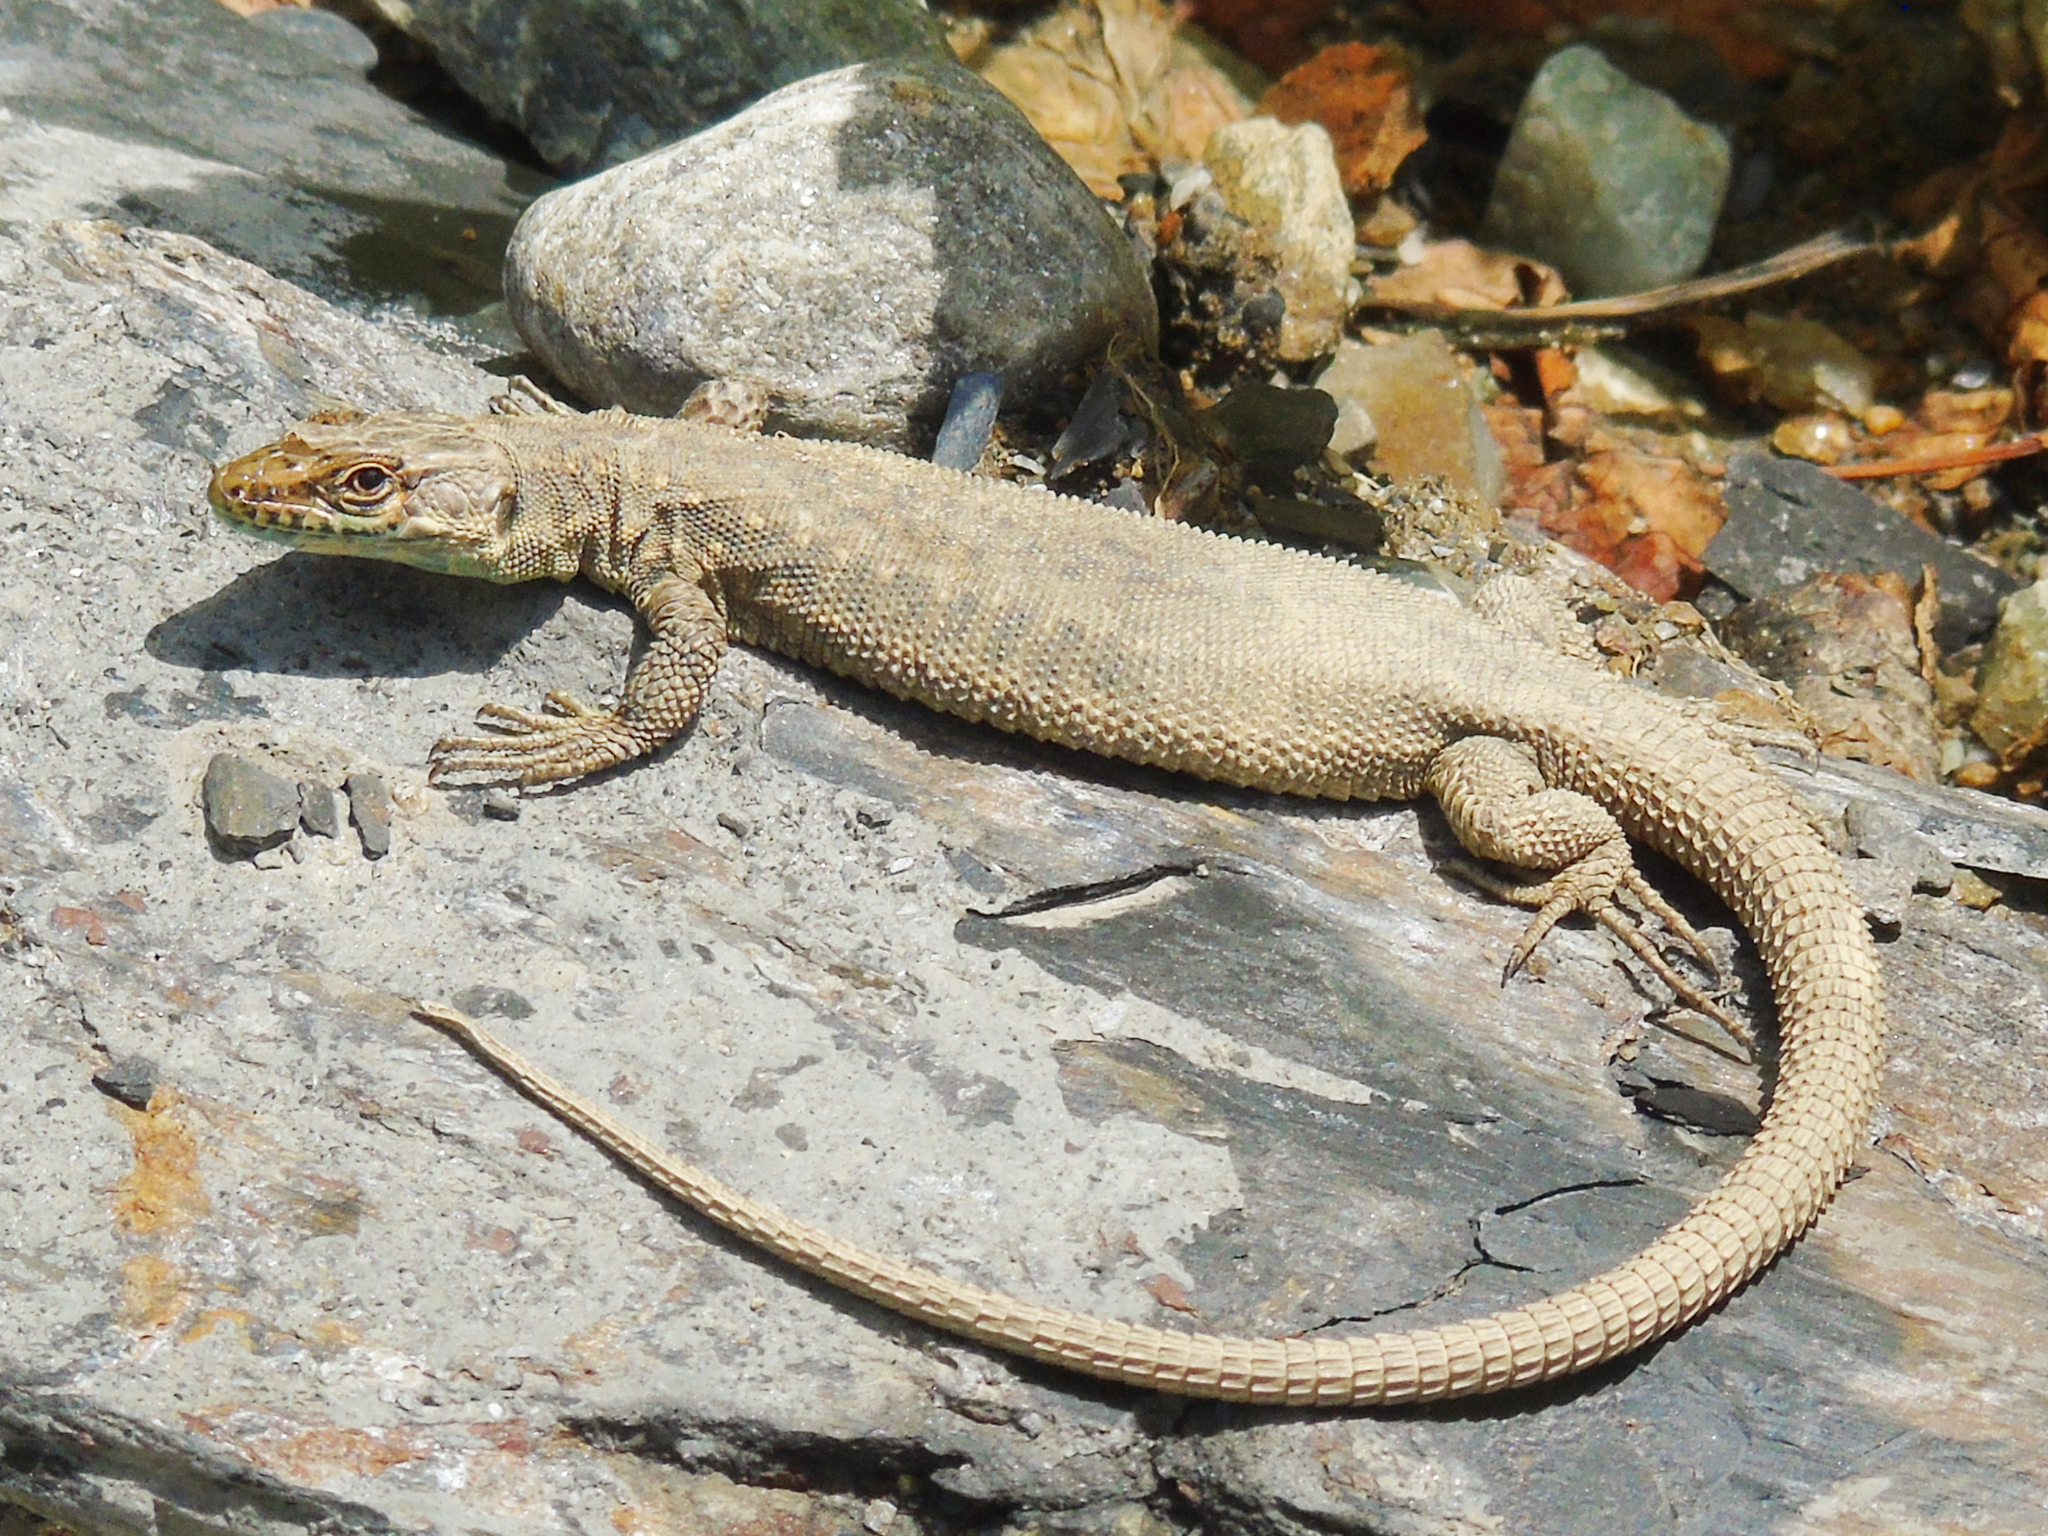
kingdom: Animalia
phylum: Chordata
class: Squamata
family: Lacertidae
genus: Darevskia
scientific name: Darevskia rudis
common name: Spiny-tailed lizard
